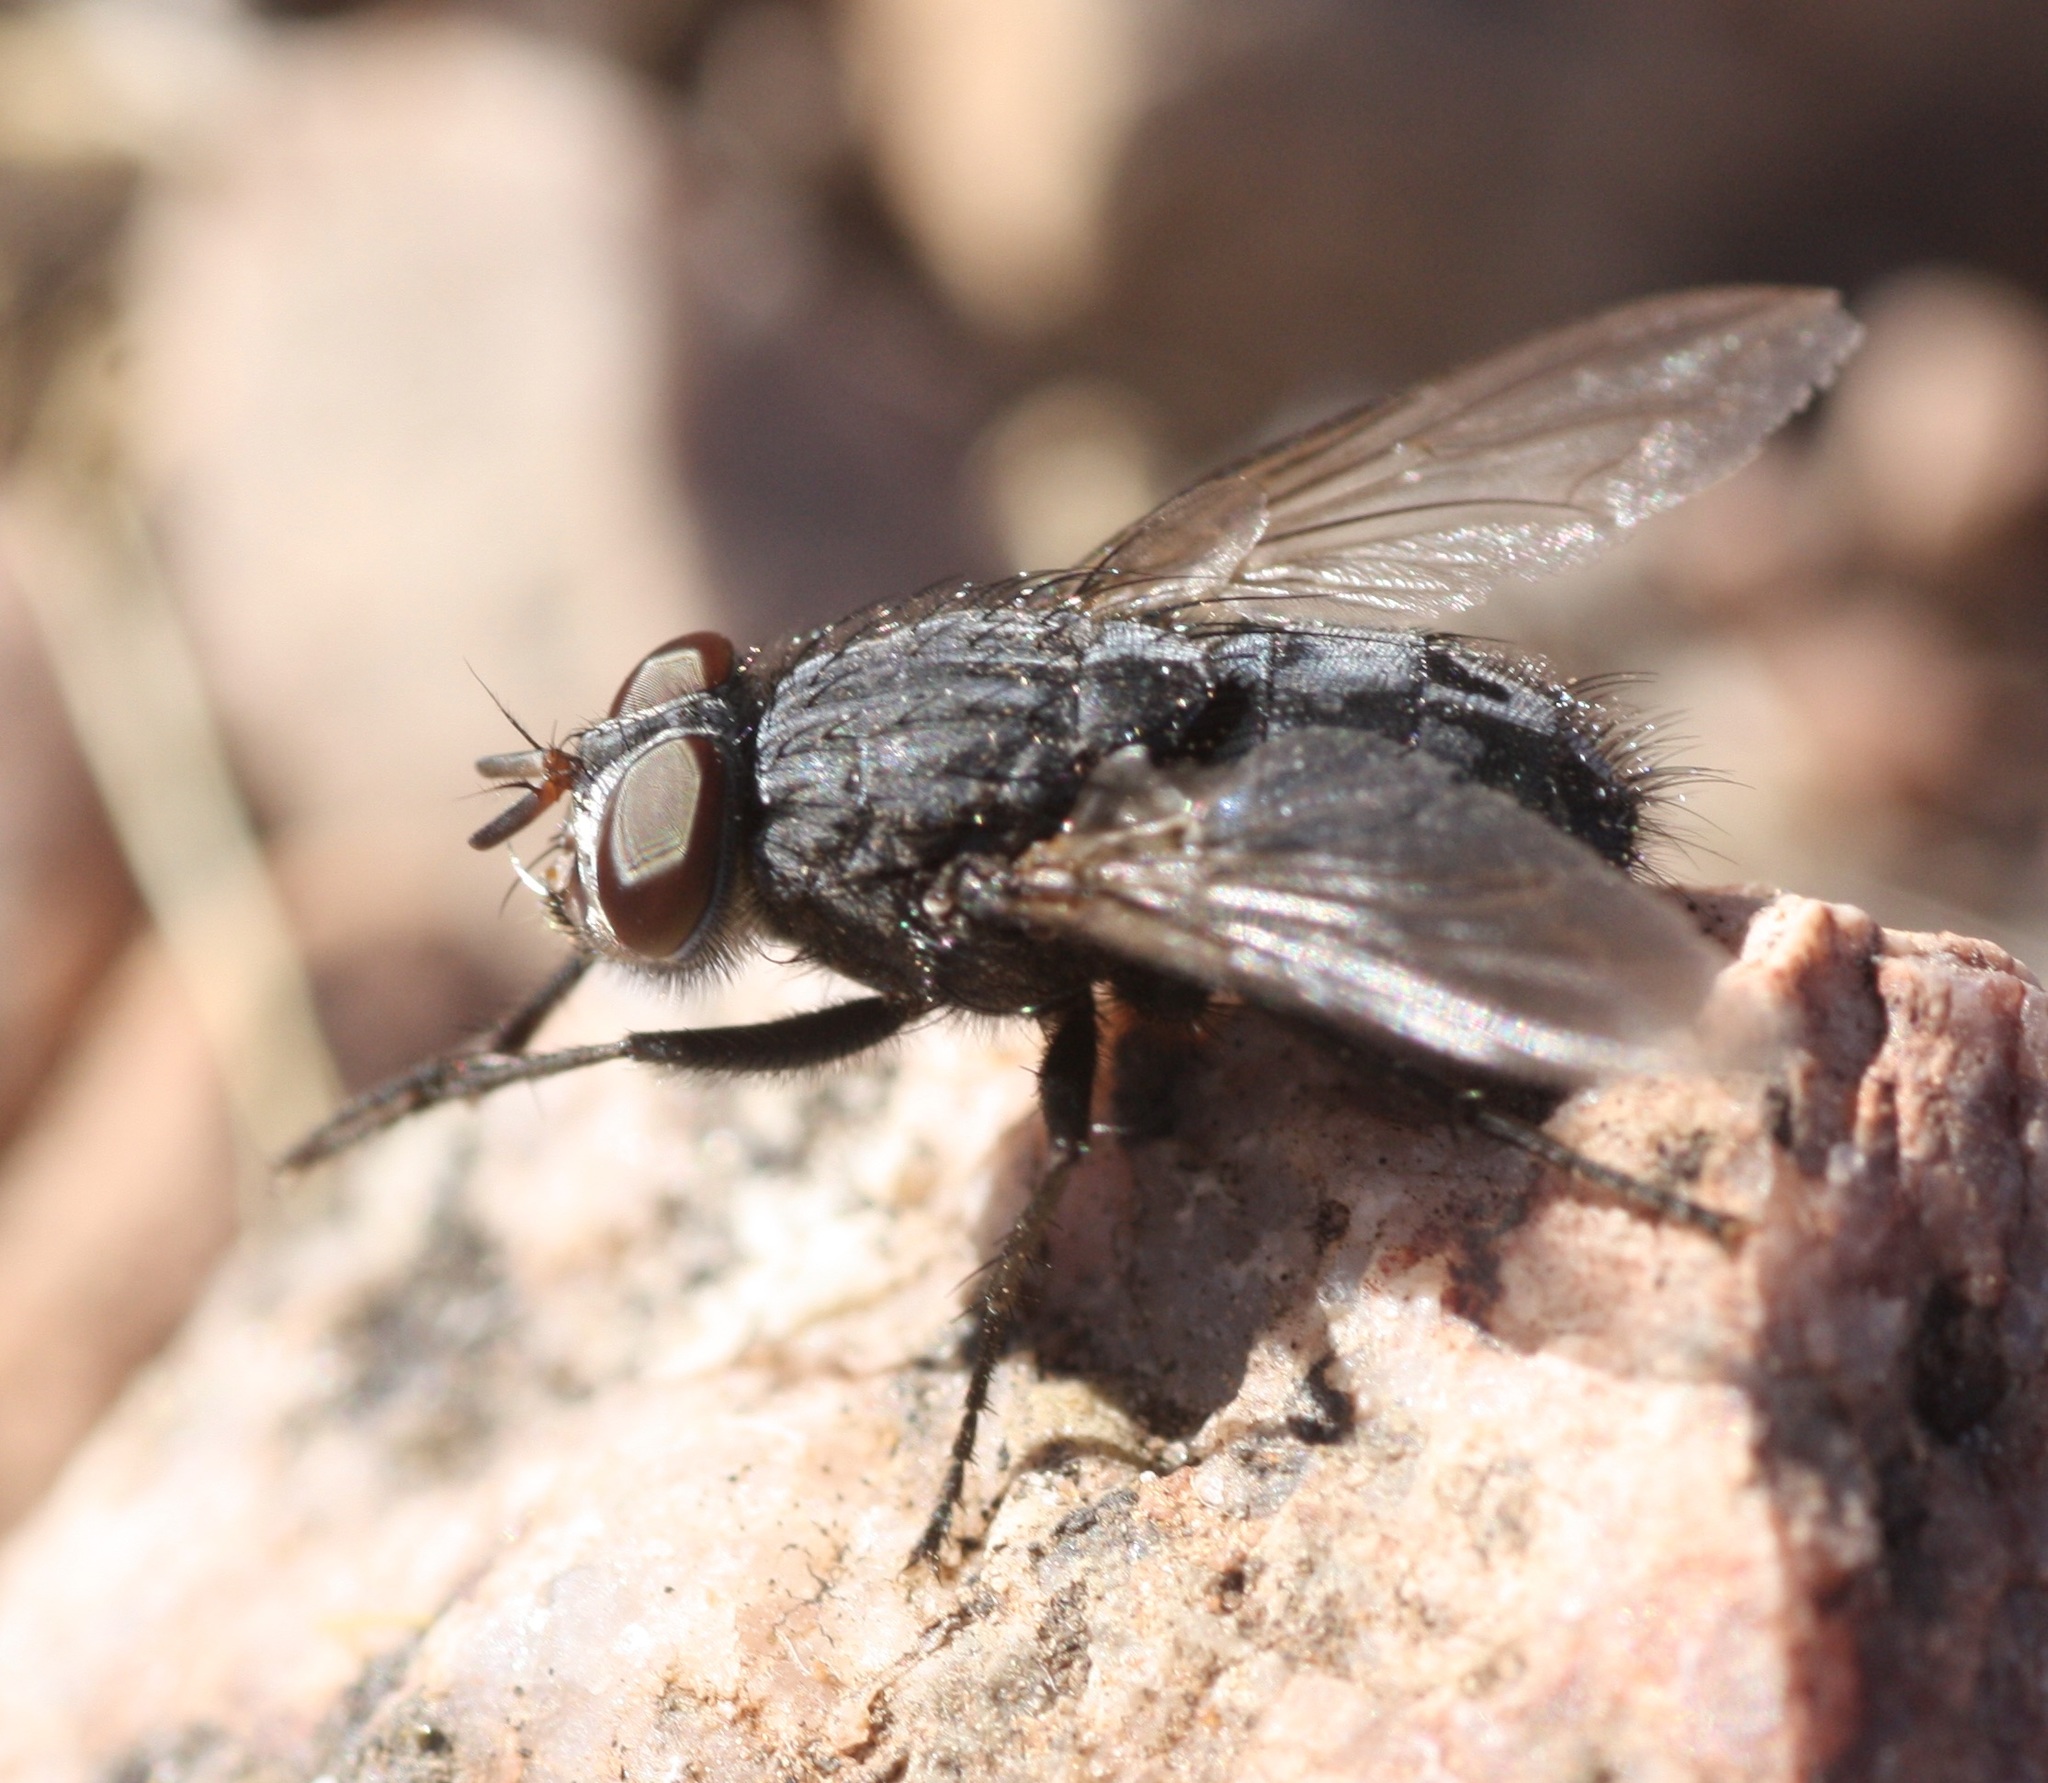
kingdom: Animalia
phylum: Arthropoda
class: Insecta
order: Diptera
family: Calliphoridae
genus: Calliphora
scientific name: Calliphora coloradensis
